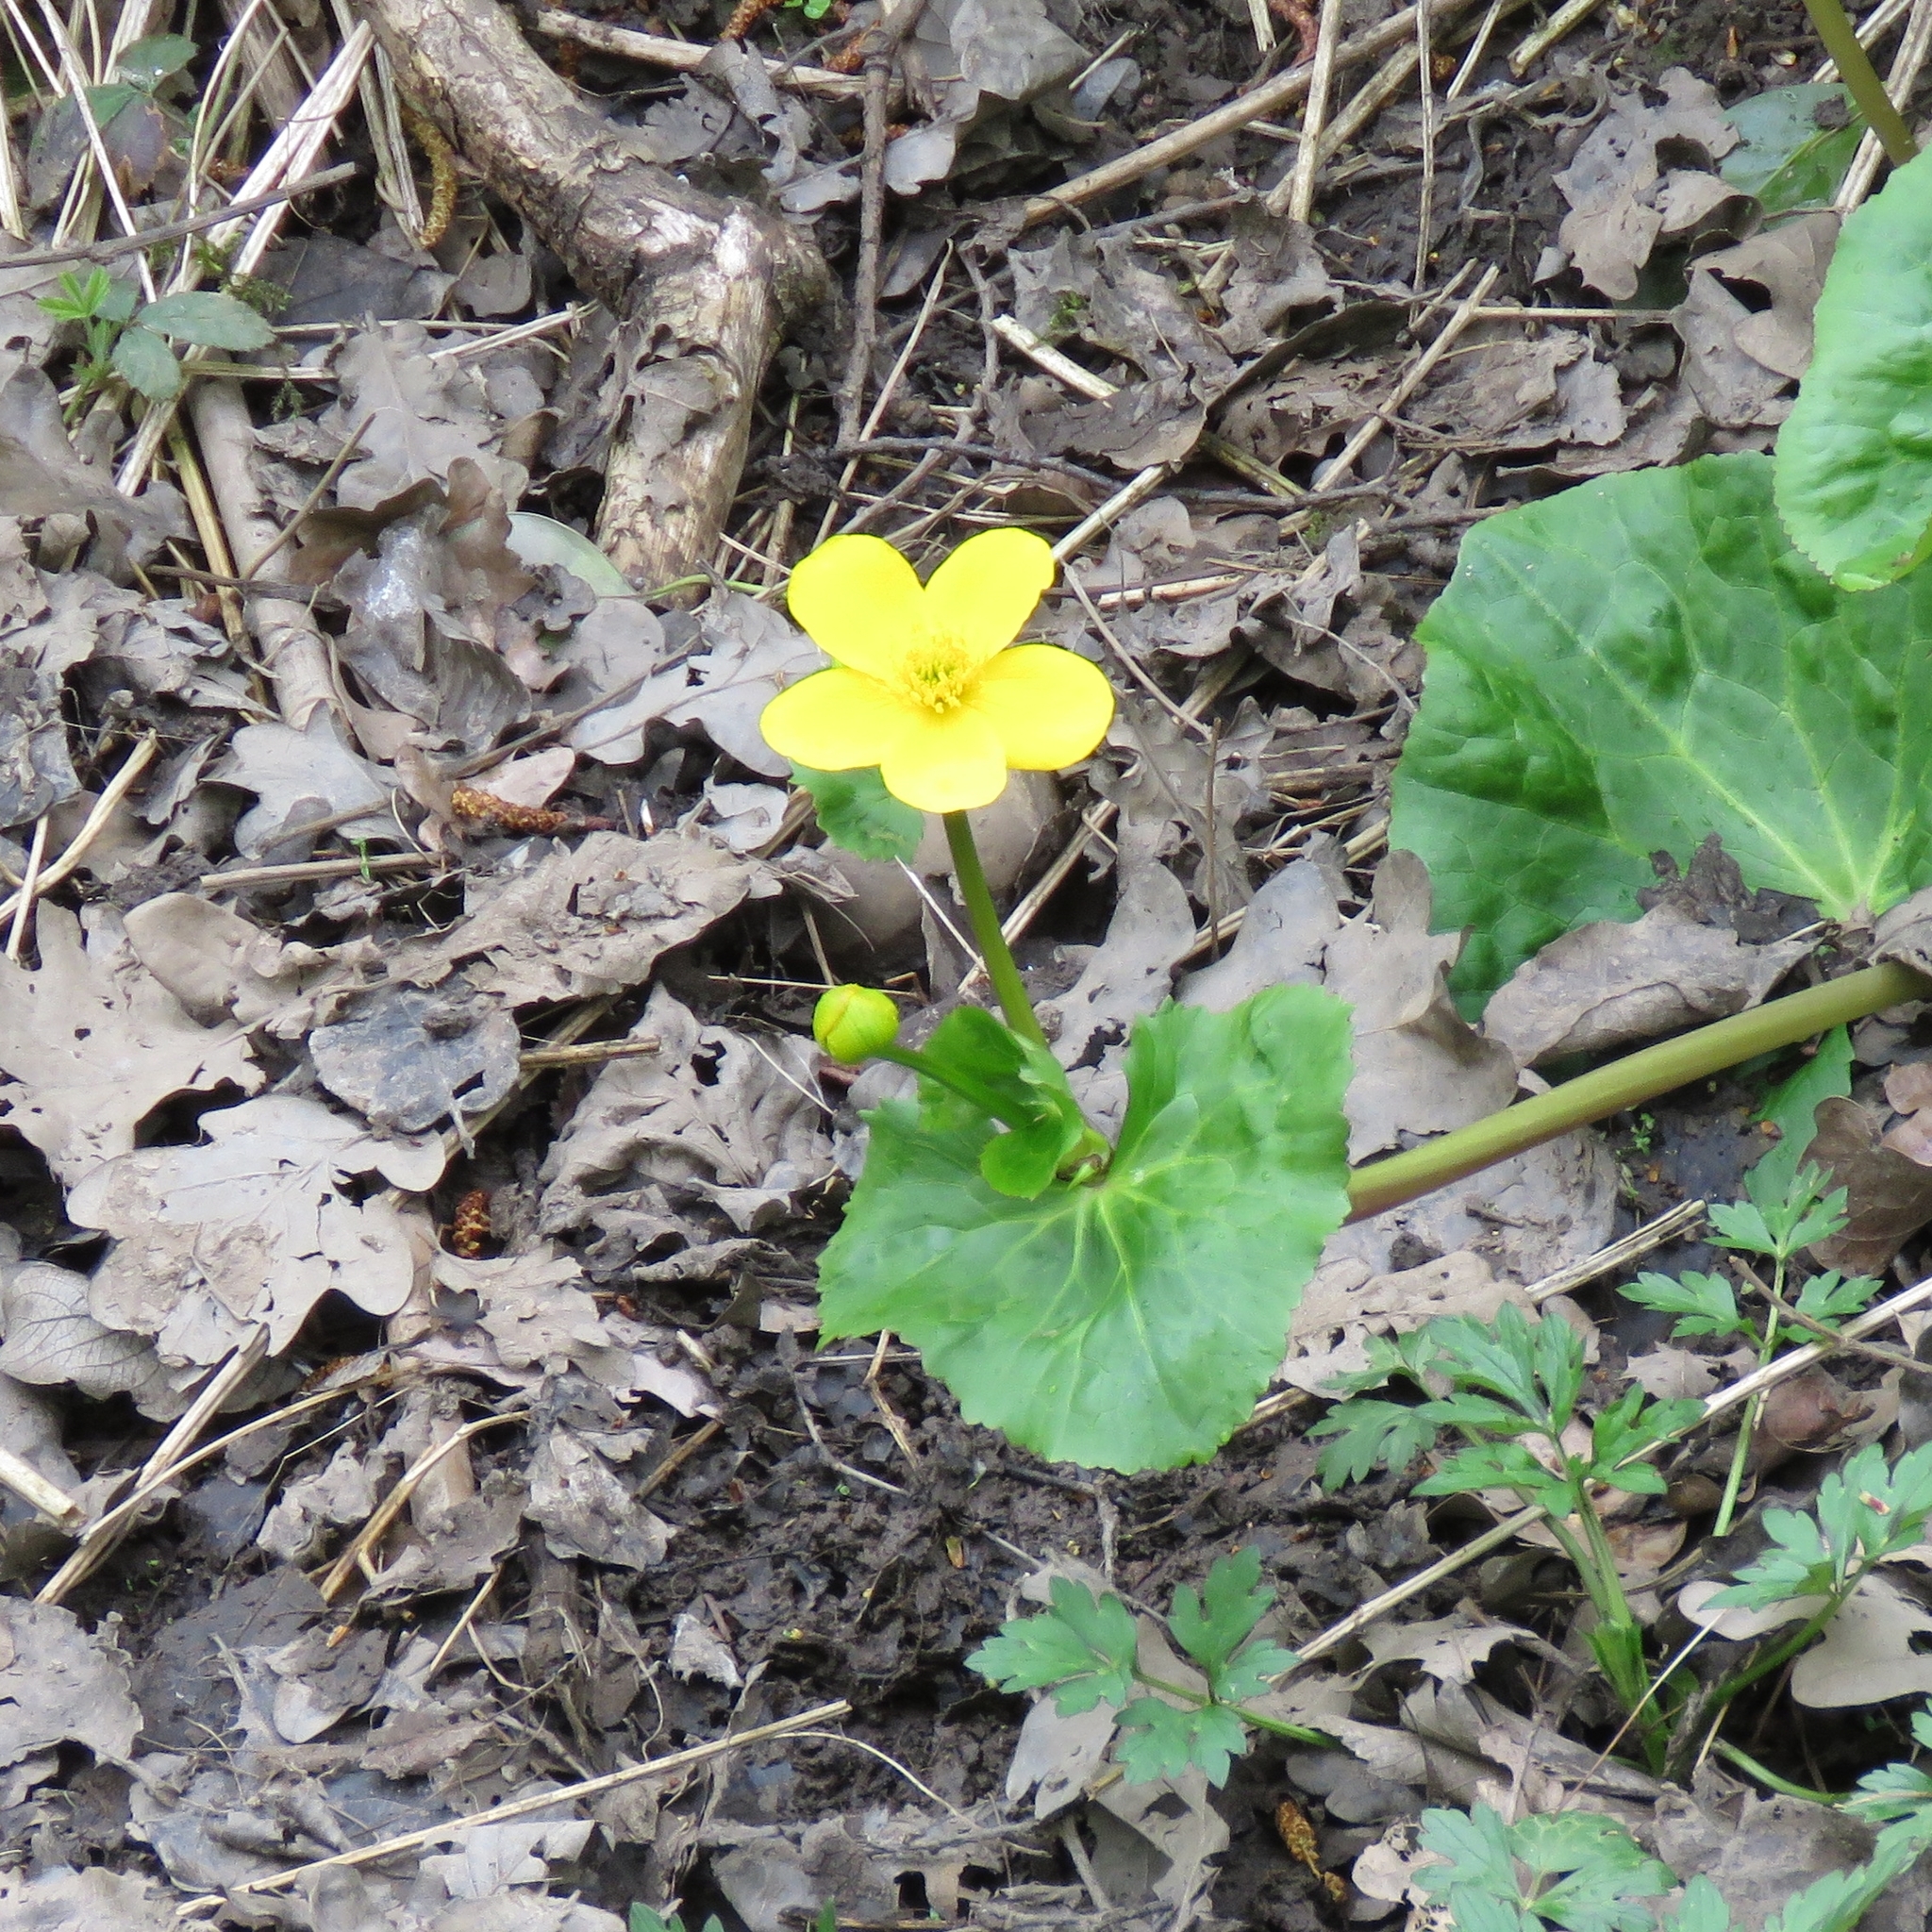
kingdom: Plantae
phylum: Tracheophyta
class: Magnoliopsida
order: Ranunculales
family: Ranunculaceae
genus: Caltha
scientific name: Caltha palustris
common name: Marsh marigold
